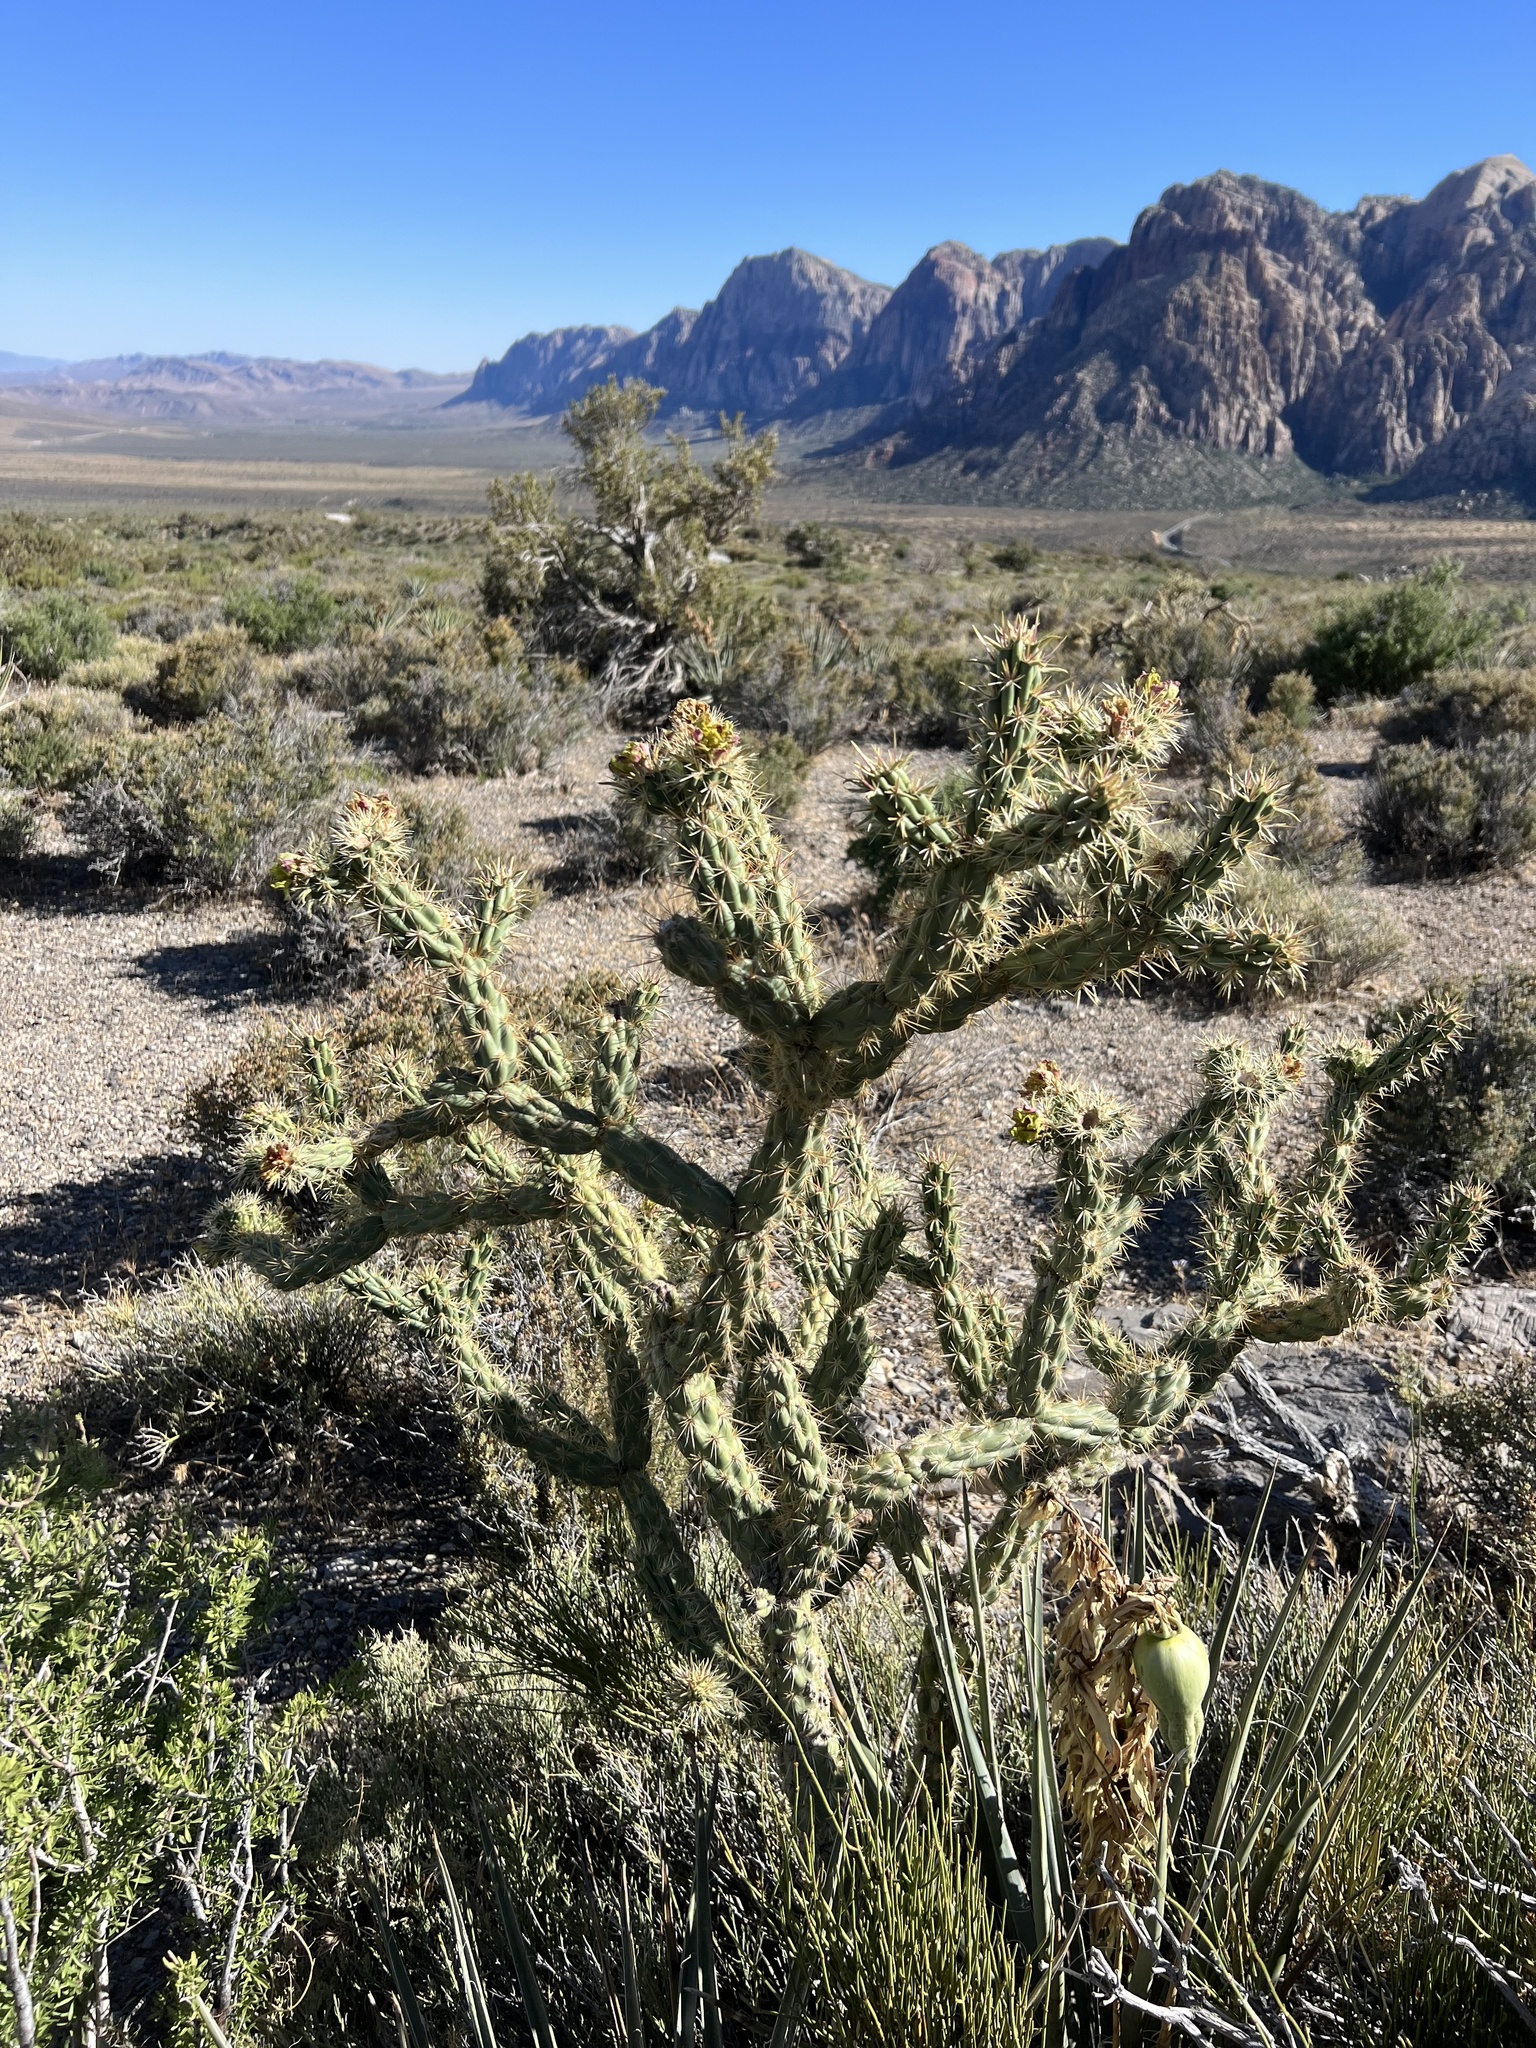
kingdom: Plantae
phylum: Tracheophyta
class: Liliopsida
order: Asparagales
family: Asparagaceae
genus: Yucca
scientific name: Yucca baccata
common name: Banana yucca
